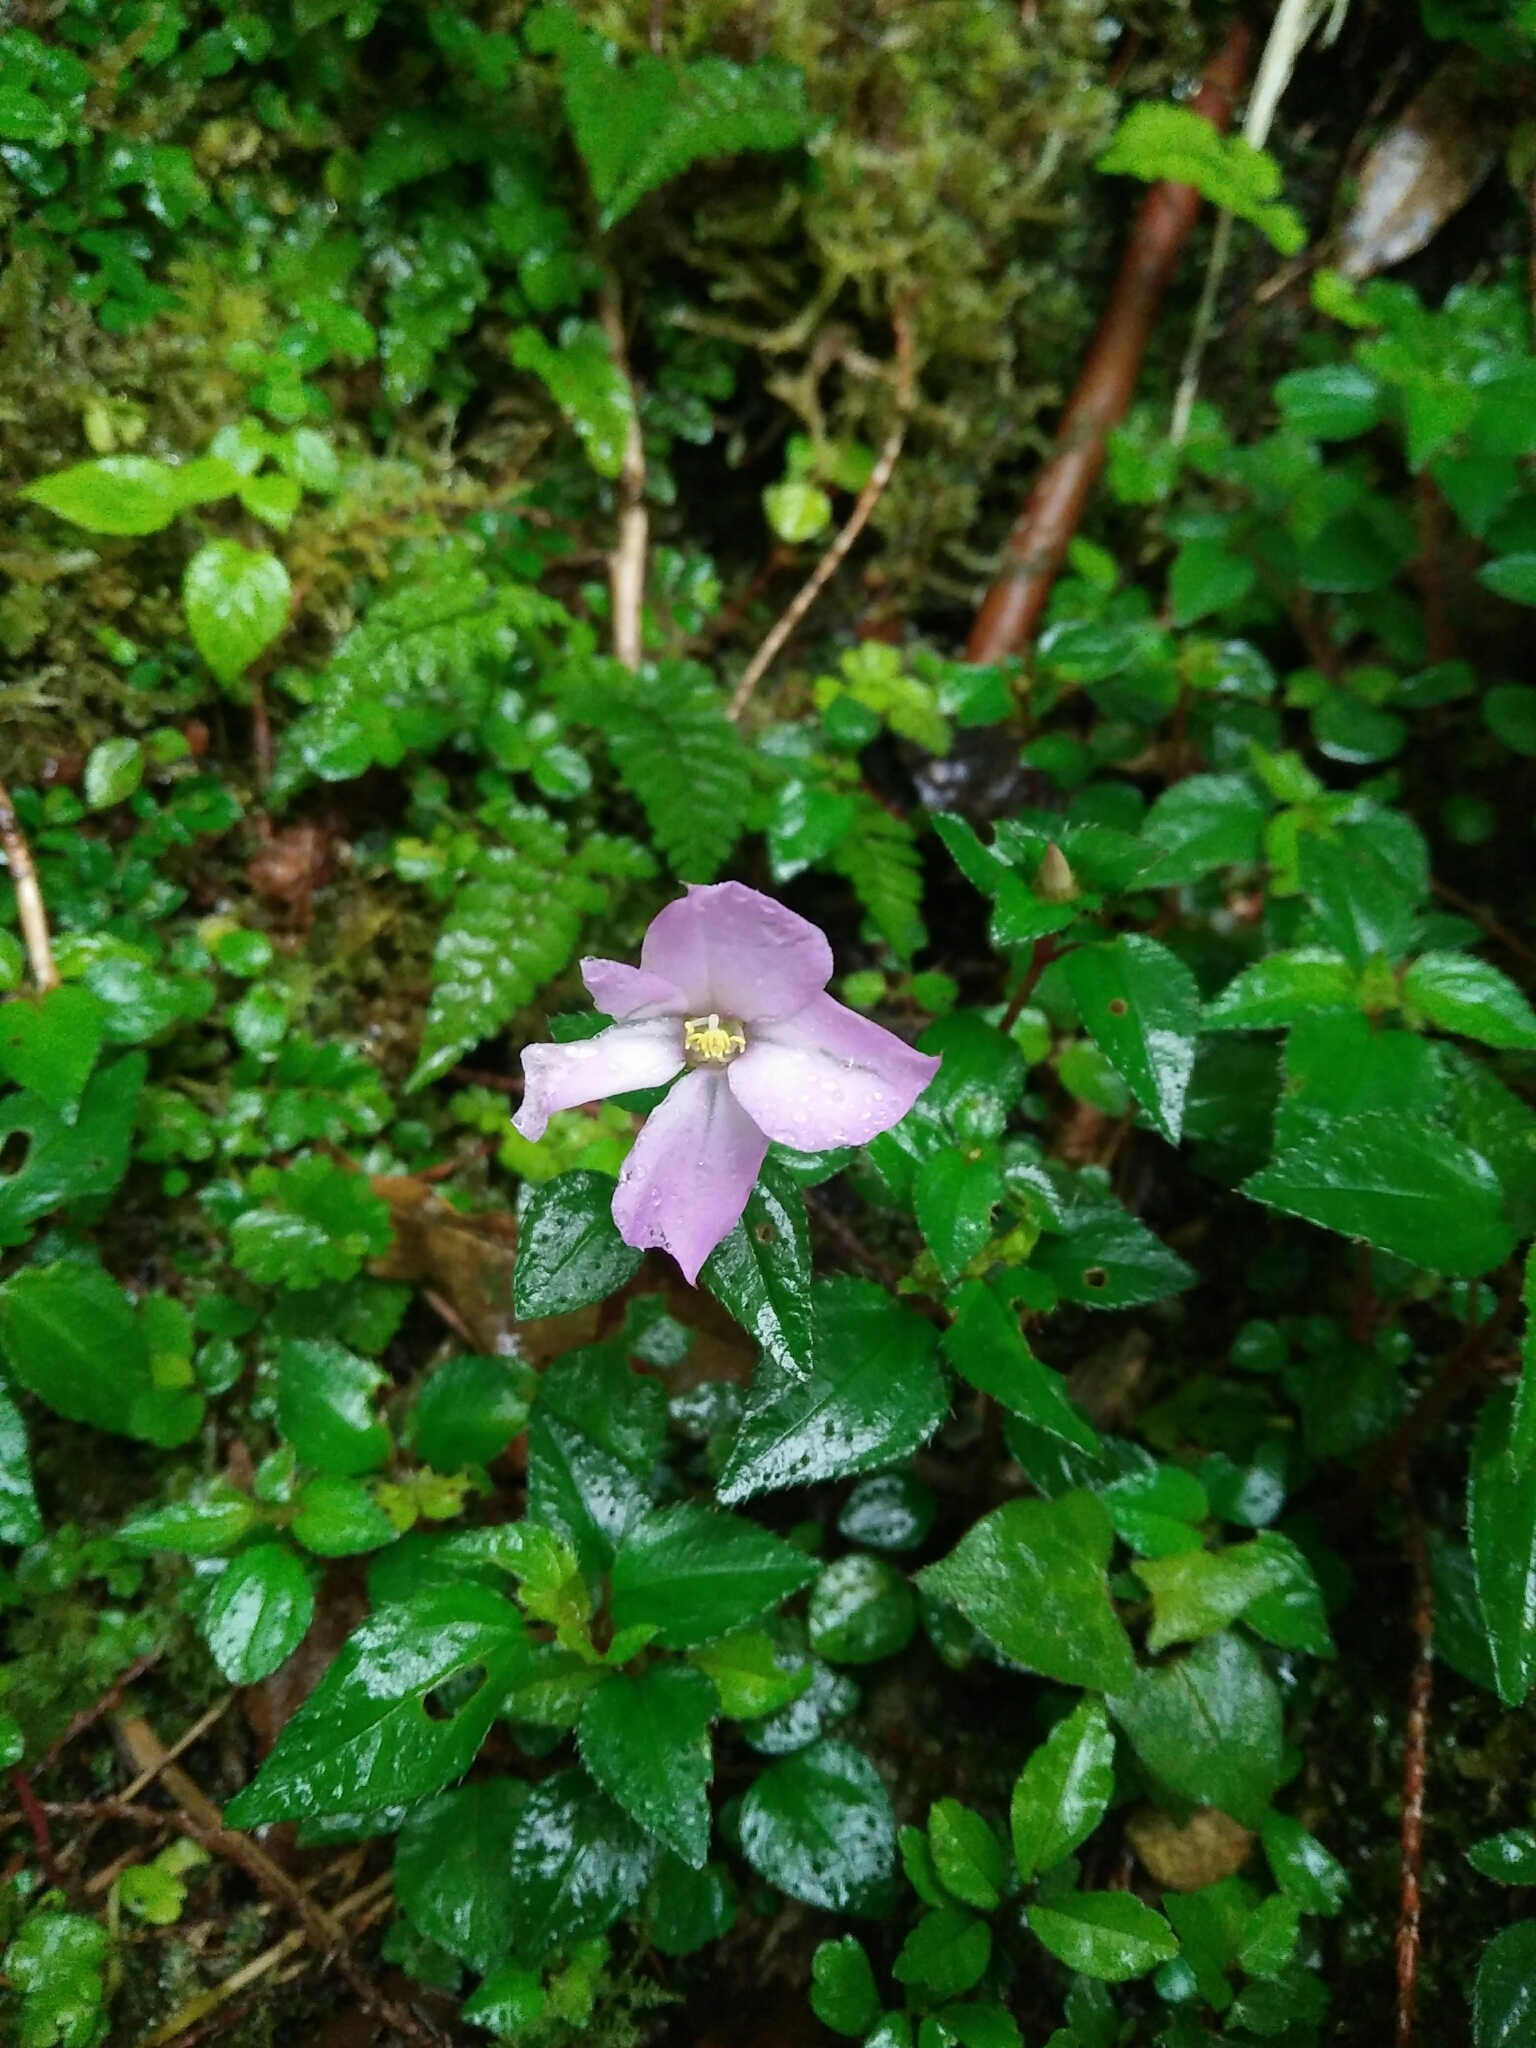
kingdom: Plantae
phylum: Tracheophyta
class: Magnoliopsida
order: Myrtales
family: Melastomataceae
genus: Sarcopyramis
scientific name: Sarcopyramis napalensis
